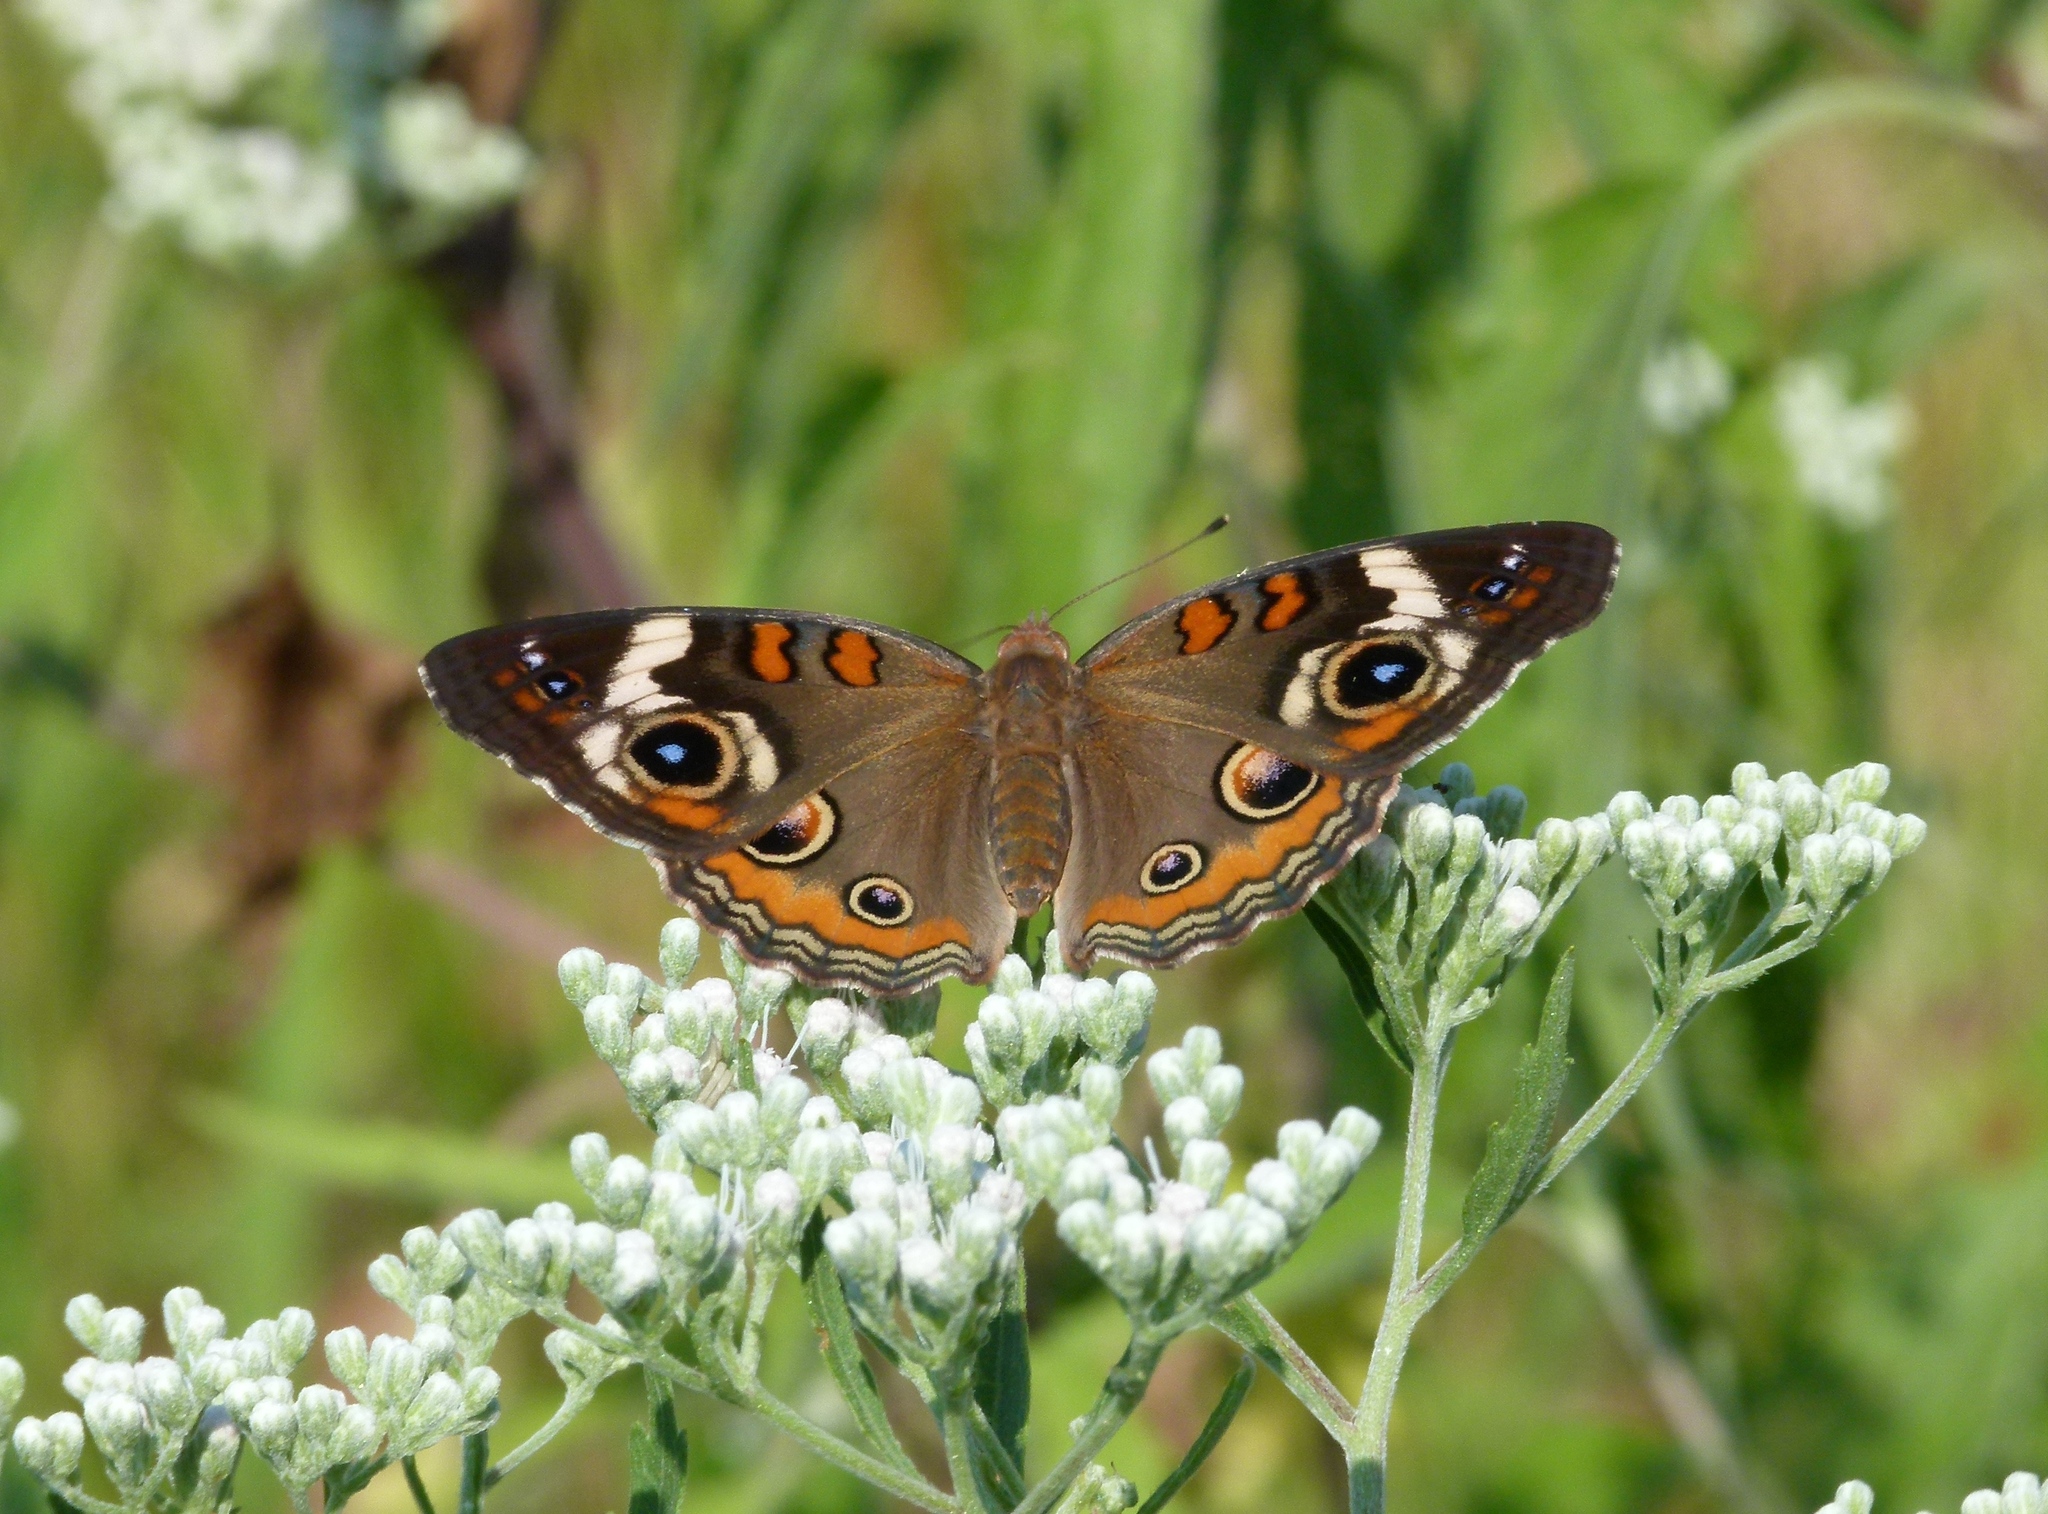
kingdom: Animalia
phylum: Arthropoda
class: Insecta
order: Lepidoptera
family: Nymphalidae
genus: Junonia
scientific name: Junonia coenia
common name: Common buckeye
